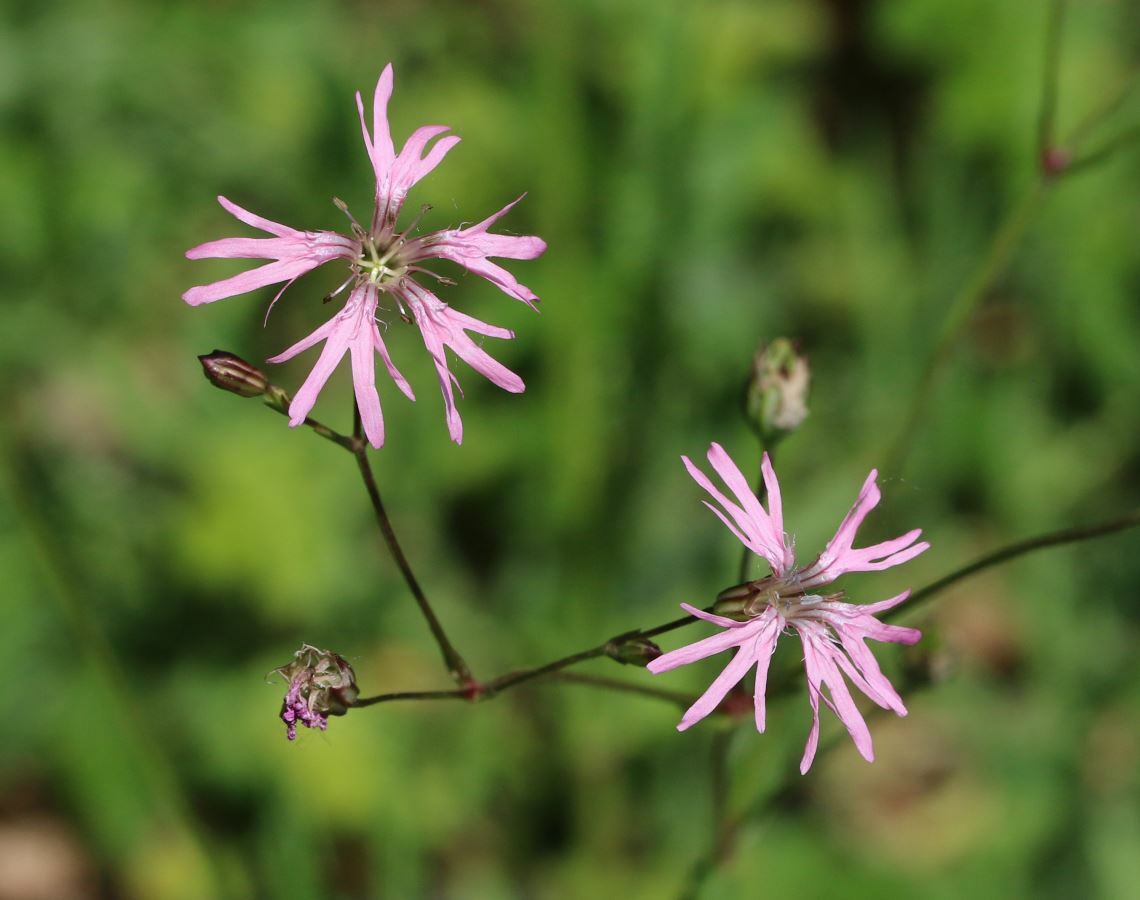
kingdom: Plantae
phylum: Tracheophyta
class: Magnoliopsida
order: Caryophyllales
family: Caryophyllaceae
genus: Silene
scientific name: Silene flos-cuculi
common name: Ragged-robin
